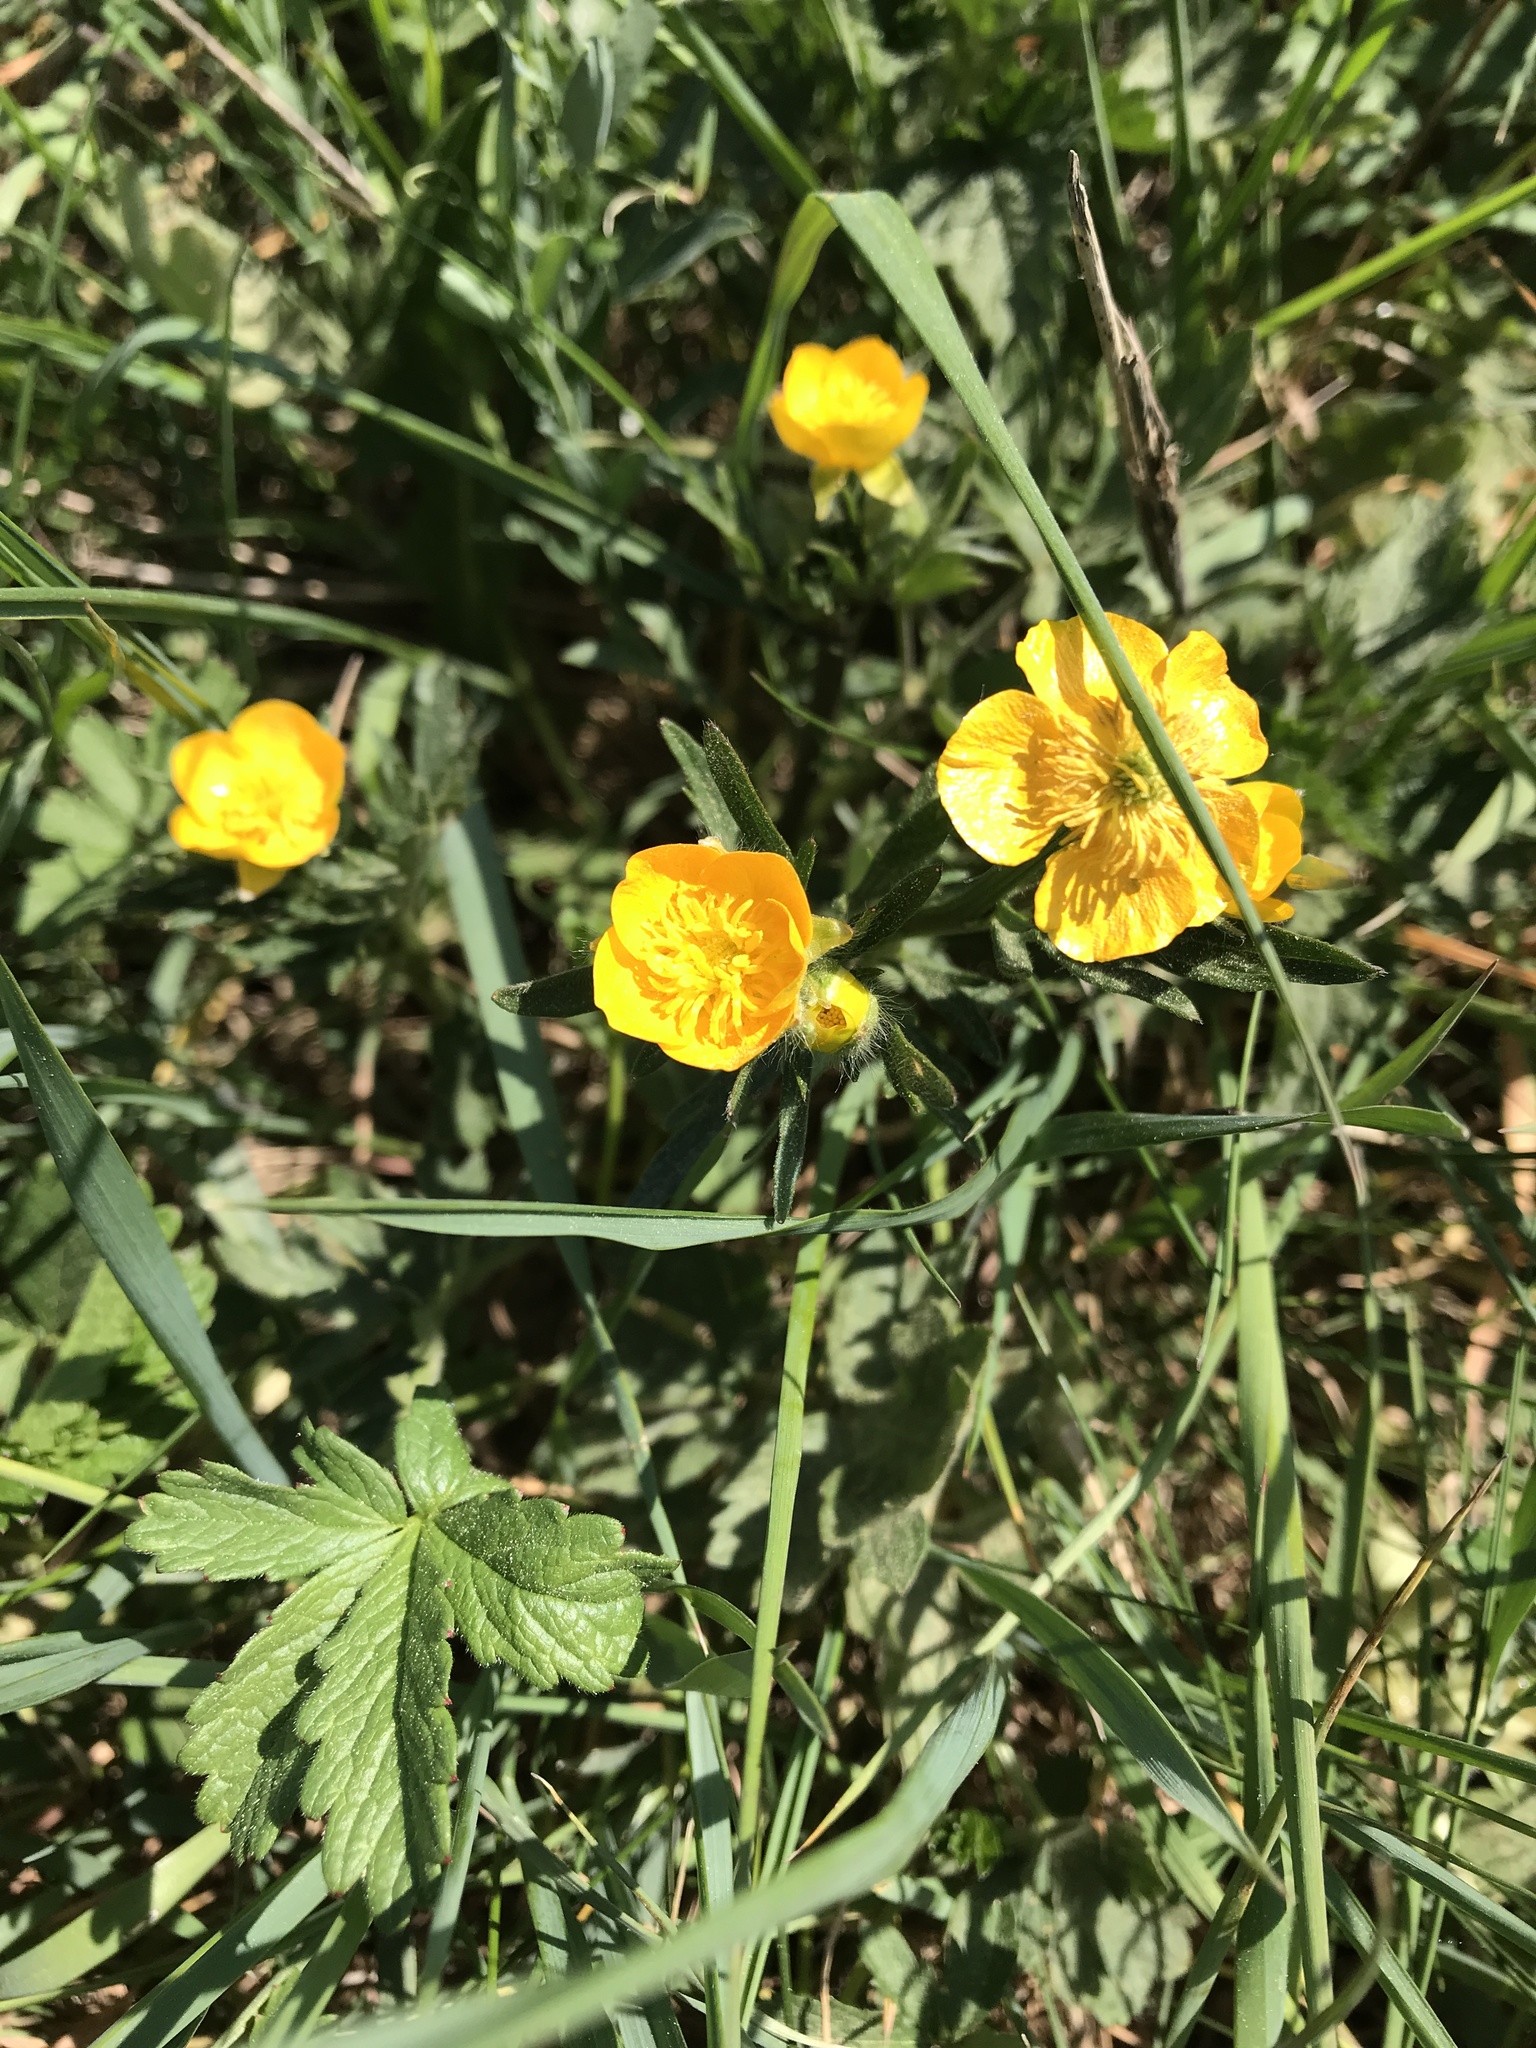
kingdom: Plantae
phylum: Tracheophyta
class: Magnoliopsida
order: Ranunculales
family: Ranunculaceae
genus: Ranunculus
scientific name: Ranunculus bulbosus
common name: Bulbous buttercup
